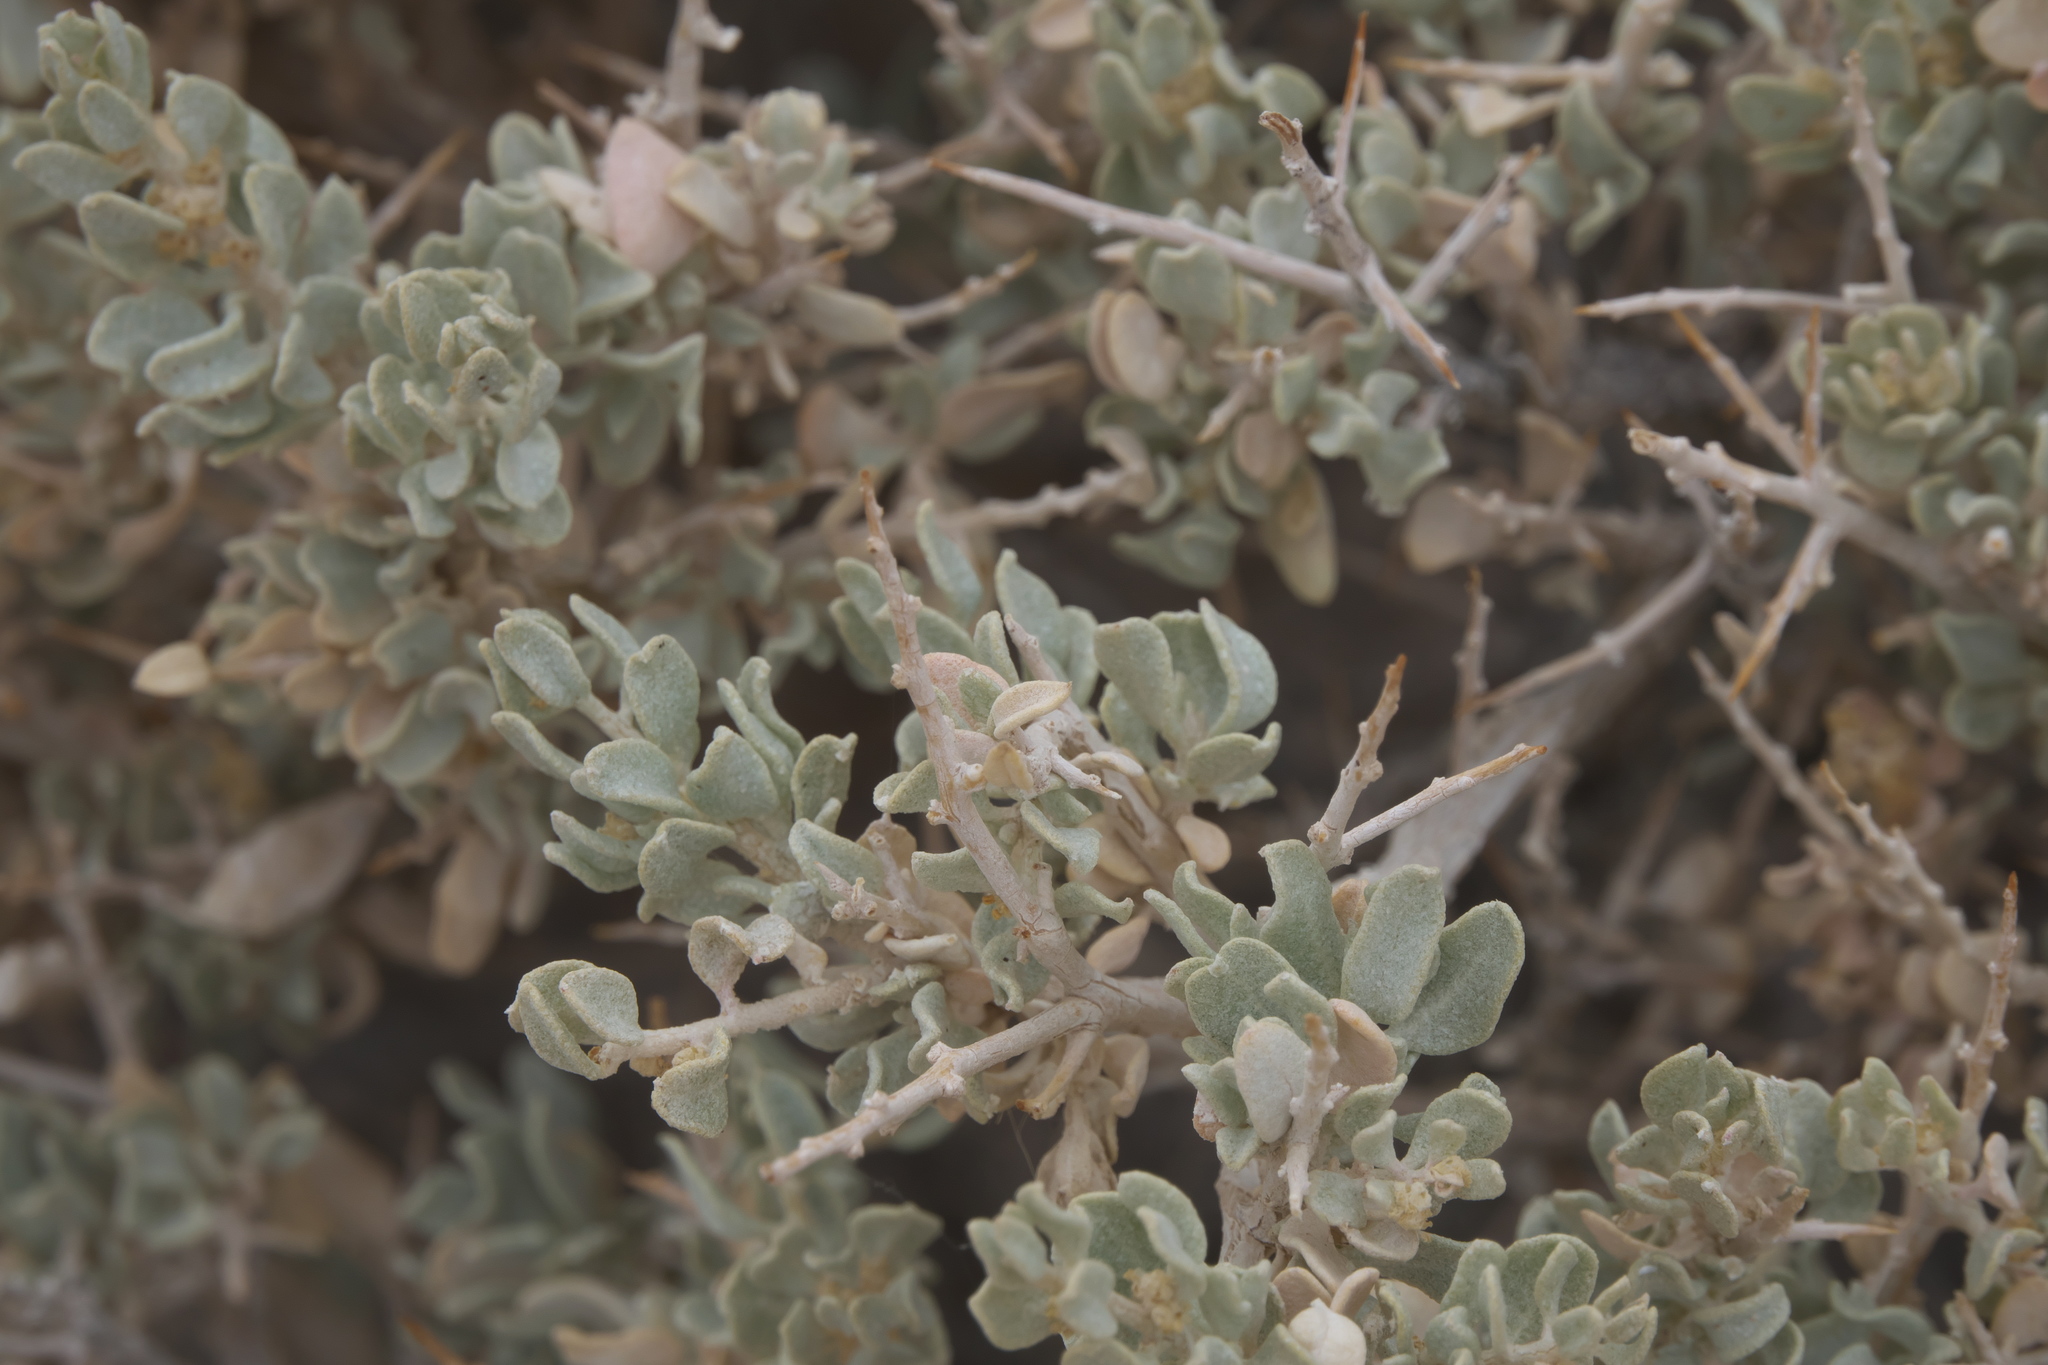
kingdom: Plantae
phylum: Tracheophyta
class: Magnoliopsida
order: Caryophyllales
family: Amaranthaceae
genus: Atriplex
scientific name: Atriplex confertifolia
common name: Shadscale
